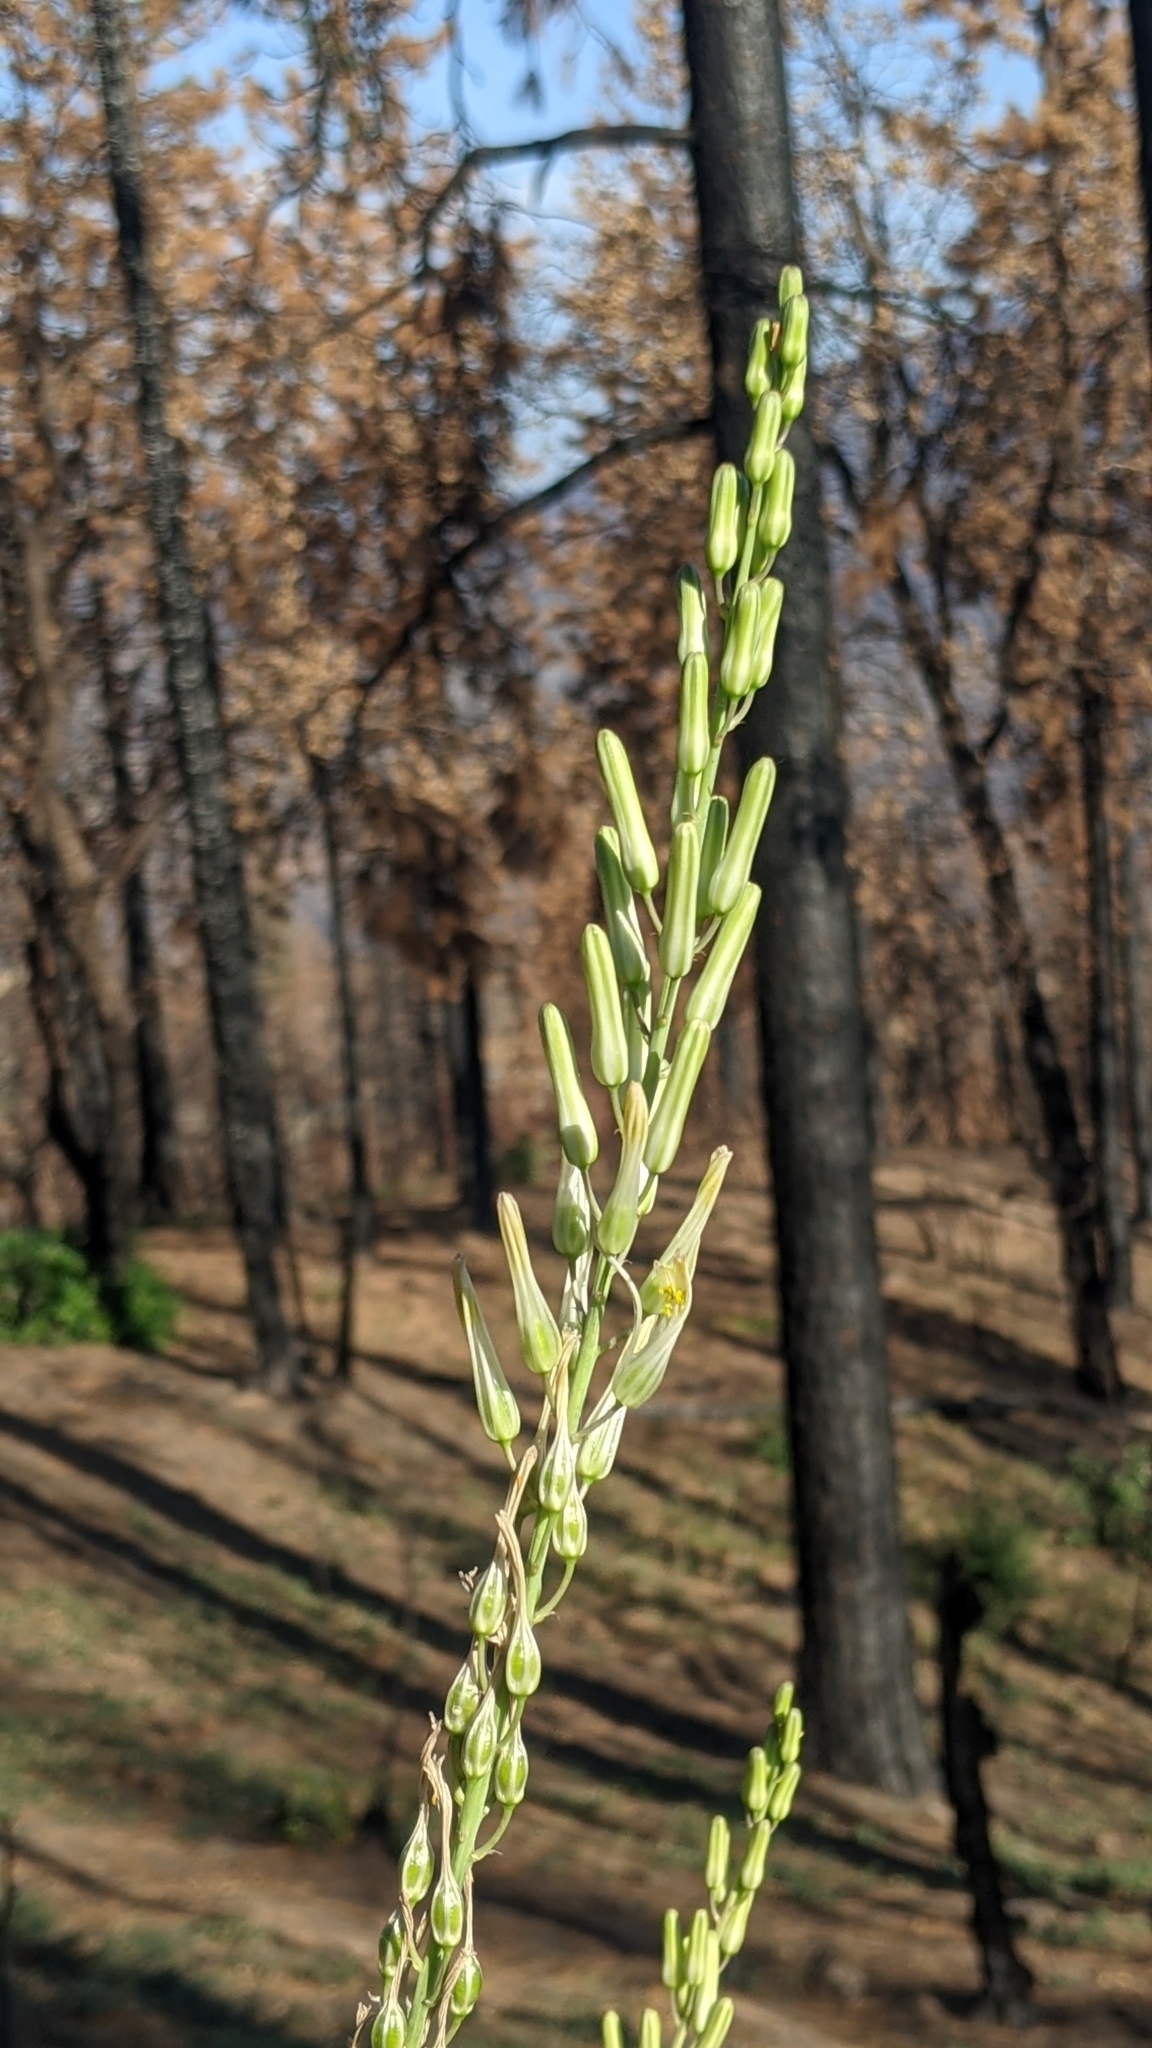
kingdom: Plantae
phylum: Tracheophyta
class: Liliopsida
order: Asparagales
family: Asparagaceae
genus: Chlorogalum
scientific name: Chlorogalum pomeridianum
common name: Amole
